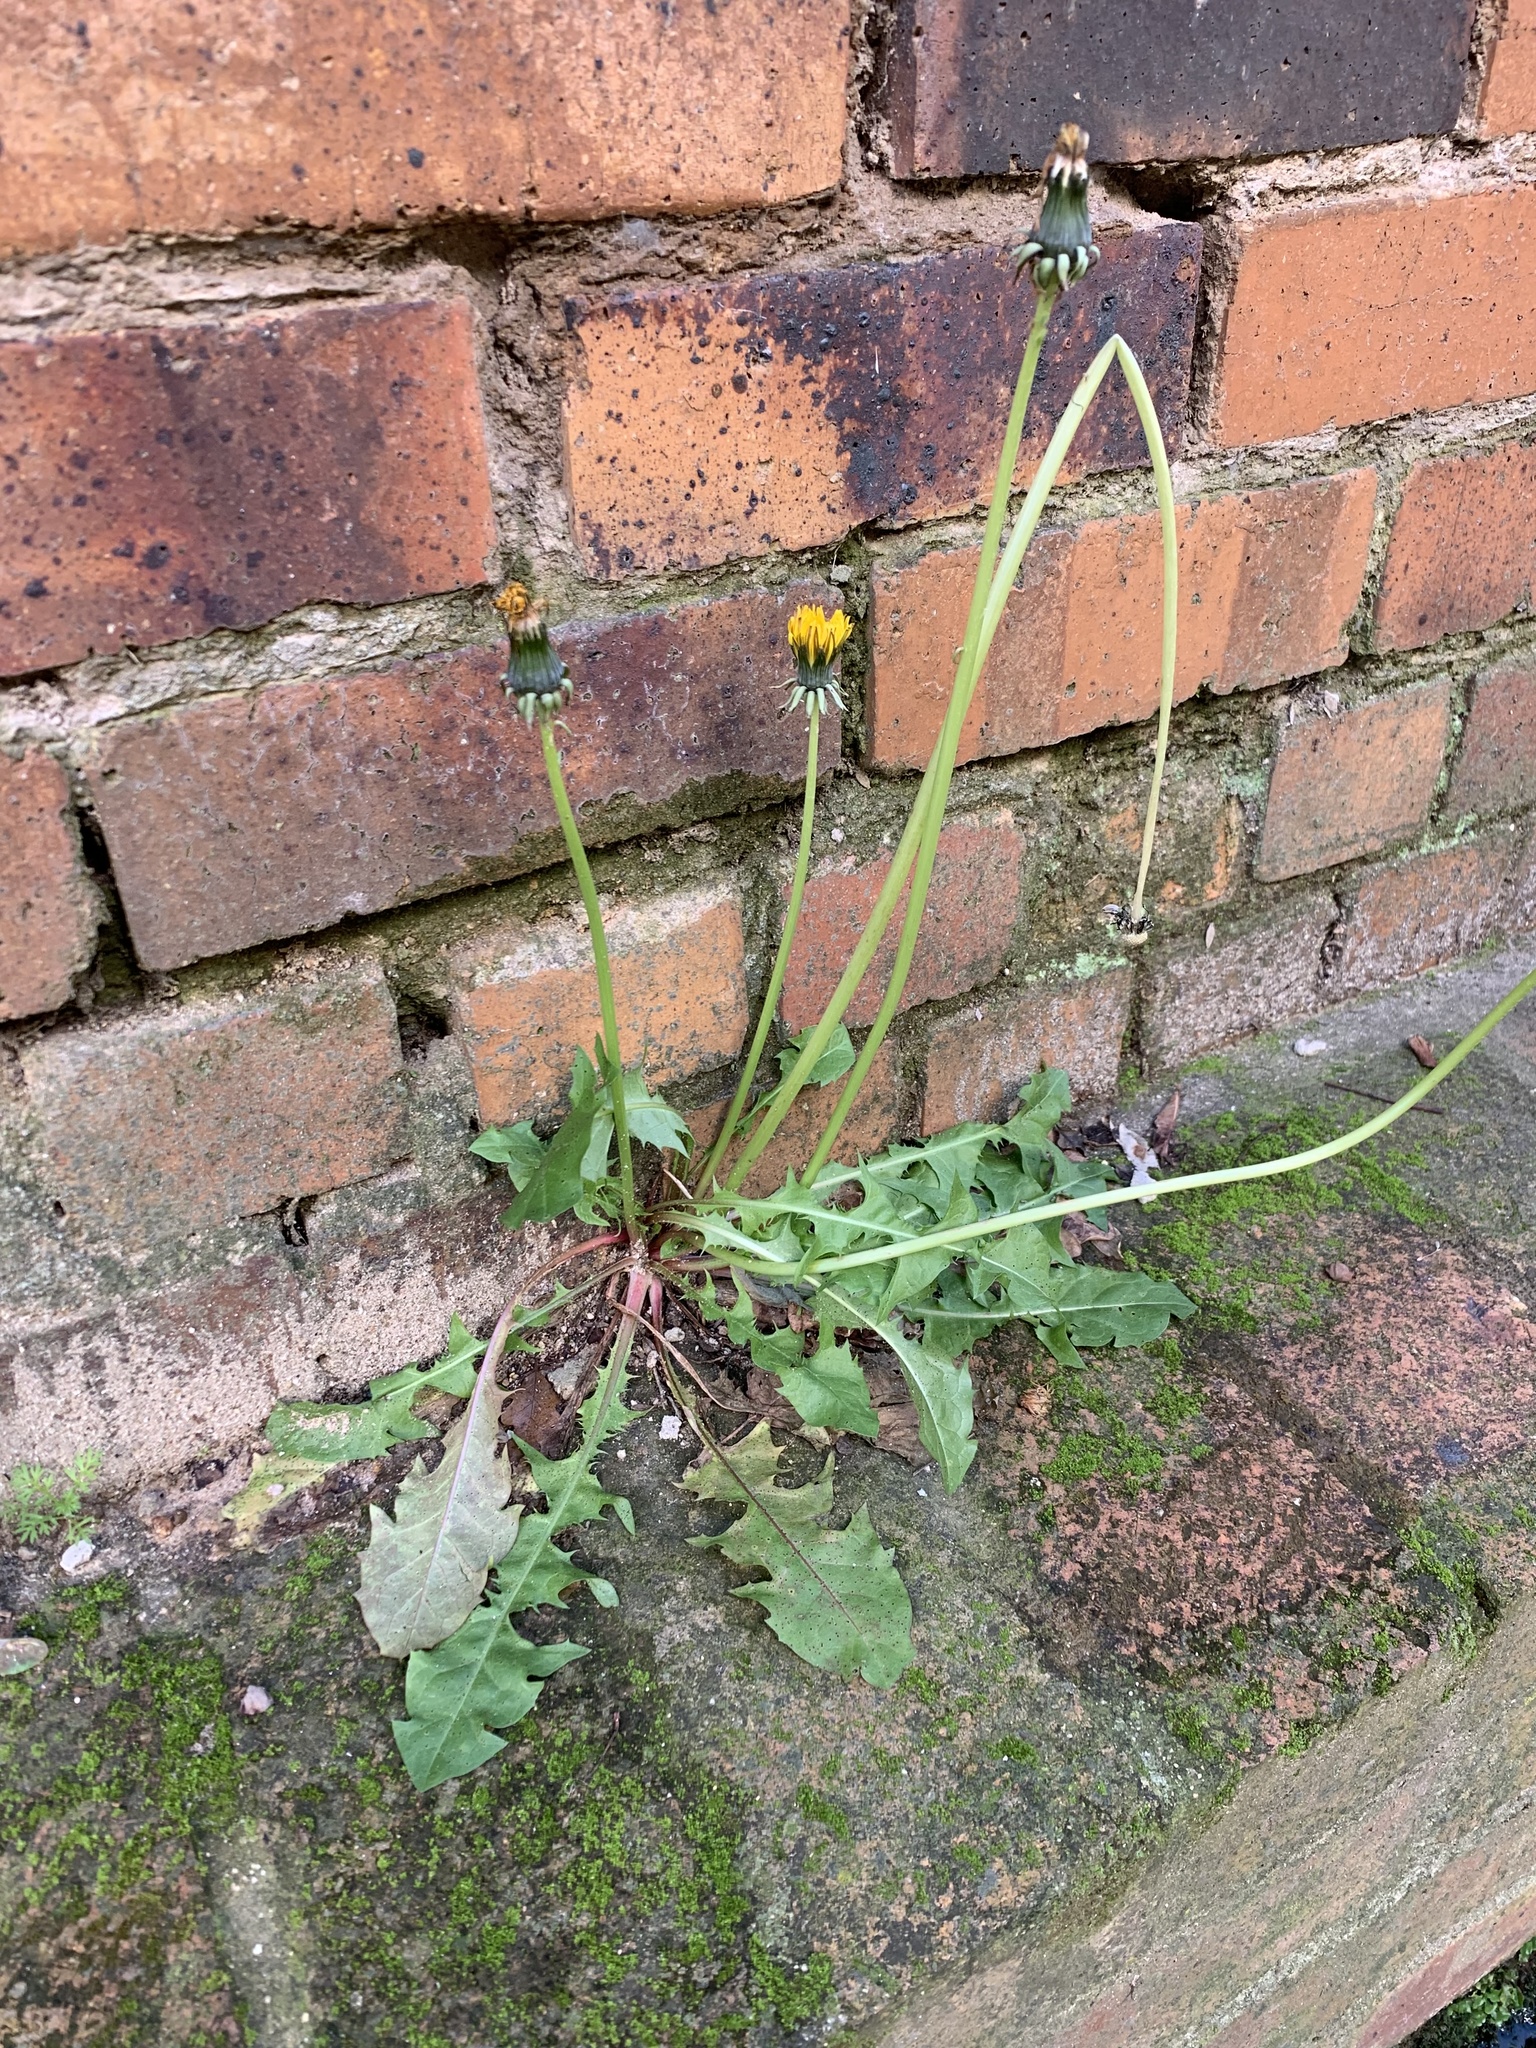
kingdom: Plantae
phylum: Tracheophyta
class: Magnoliopsida
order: Asterales
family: Asteraceae
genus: Taraxacum
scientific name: Taraxacum officinale
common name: Common dandelion
